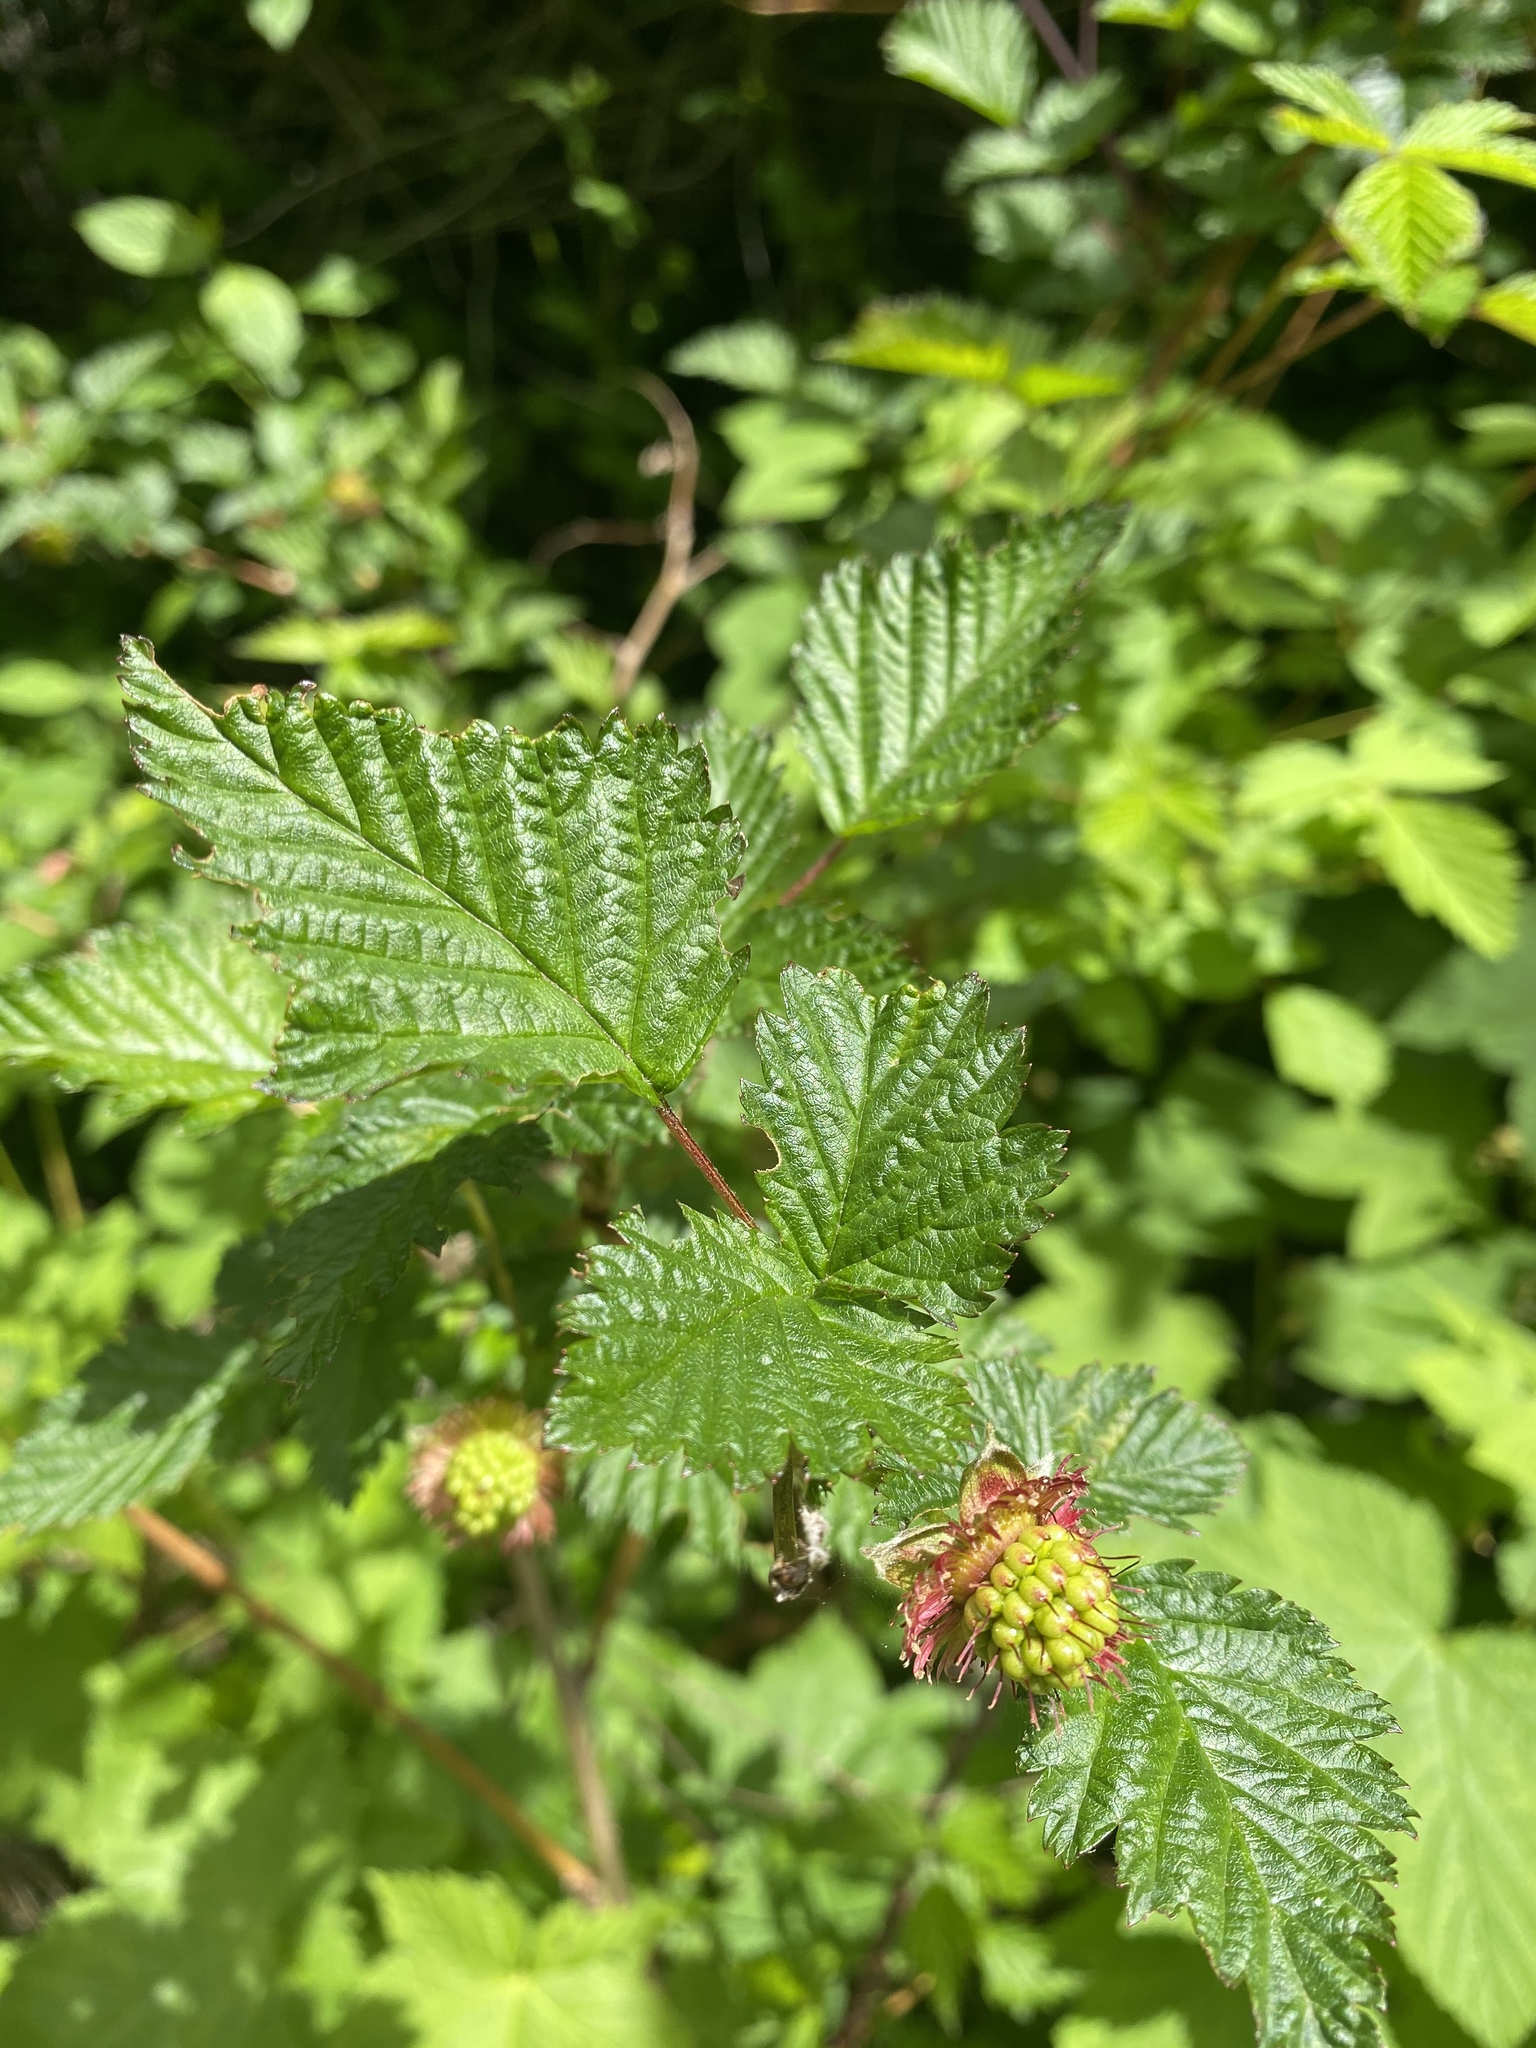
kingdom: Plantae
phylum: Tracheophyta
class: Magnoliopsida
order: Rosales
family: Rosaceae
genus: Rubus
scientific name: Rubus spectabilis
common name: Salmonberry
